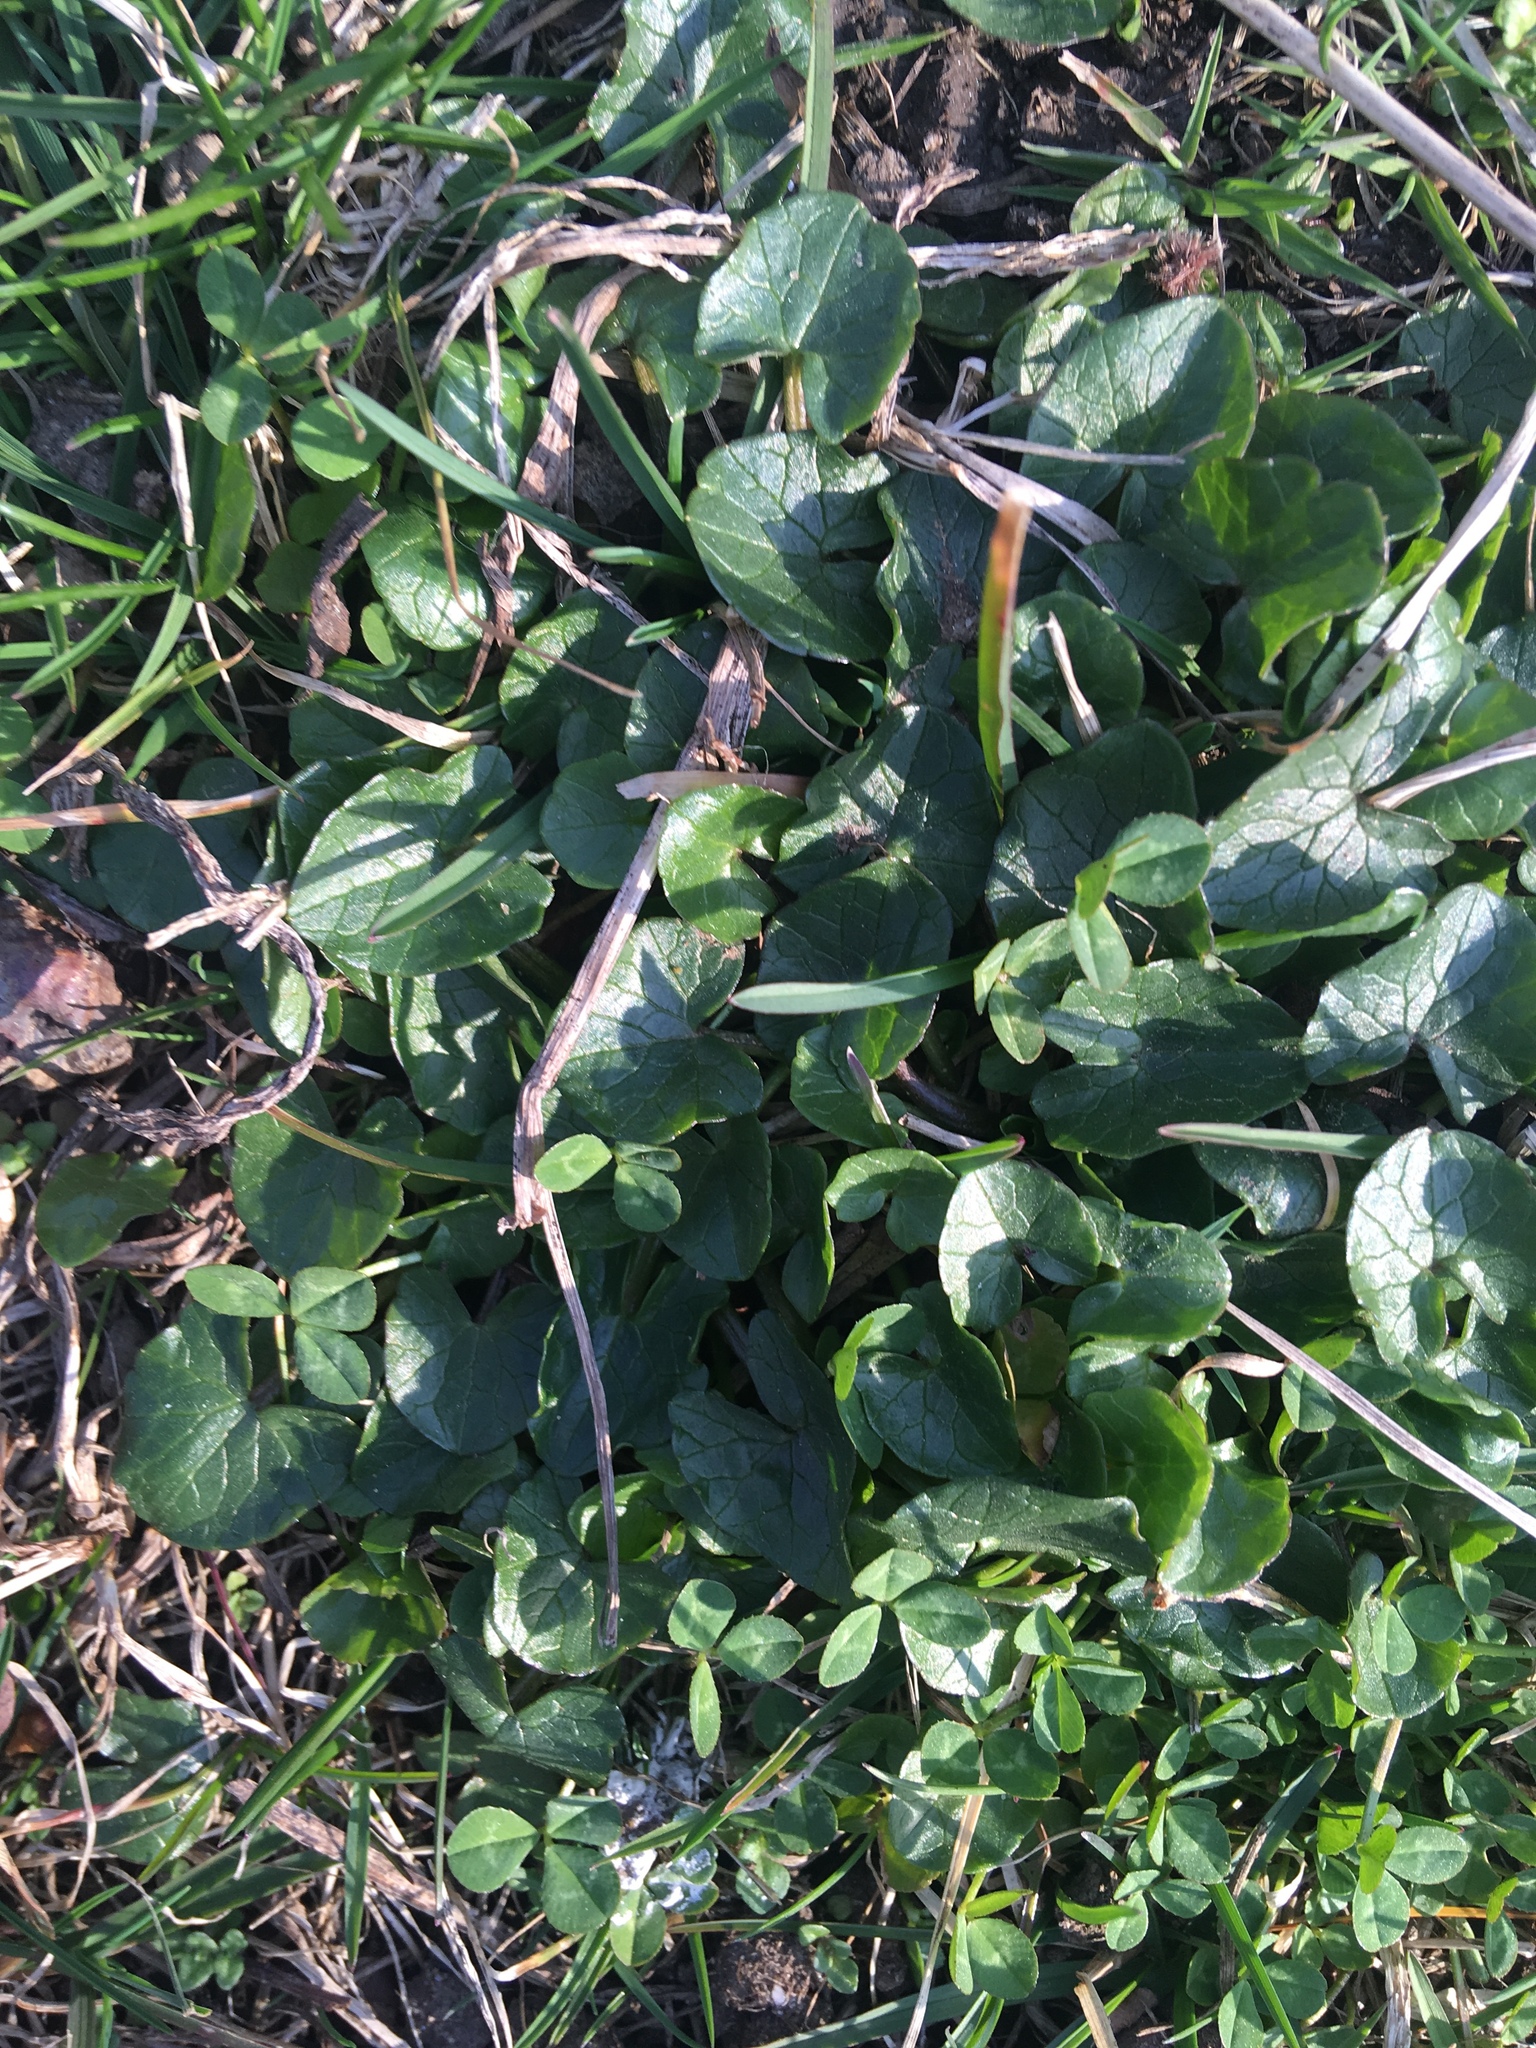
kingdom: Plantae
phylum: Tracheophyta
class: Magnoliopsida
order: Ranunculales
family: Ranunculaceae
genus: Ficaria
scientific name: Ficaria verna
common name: Lesser celandine
